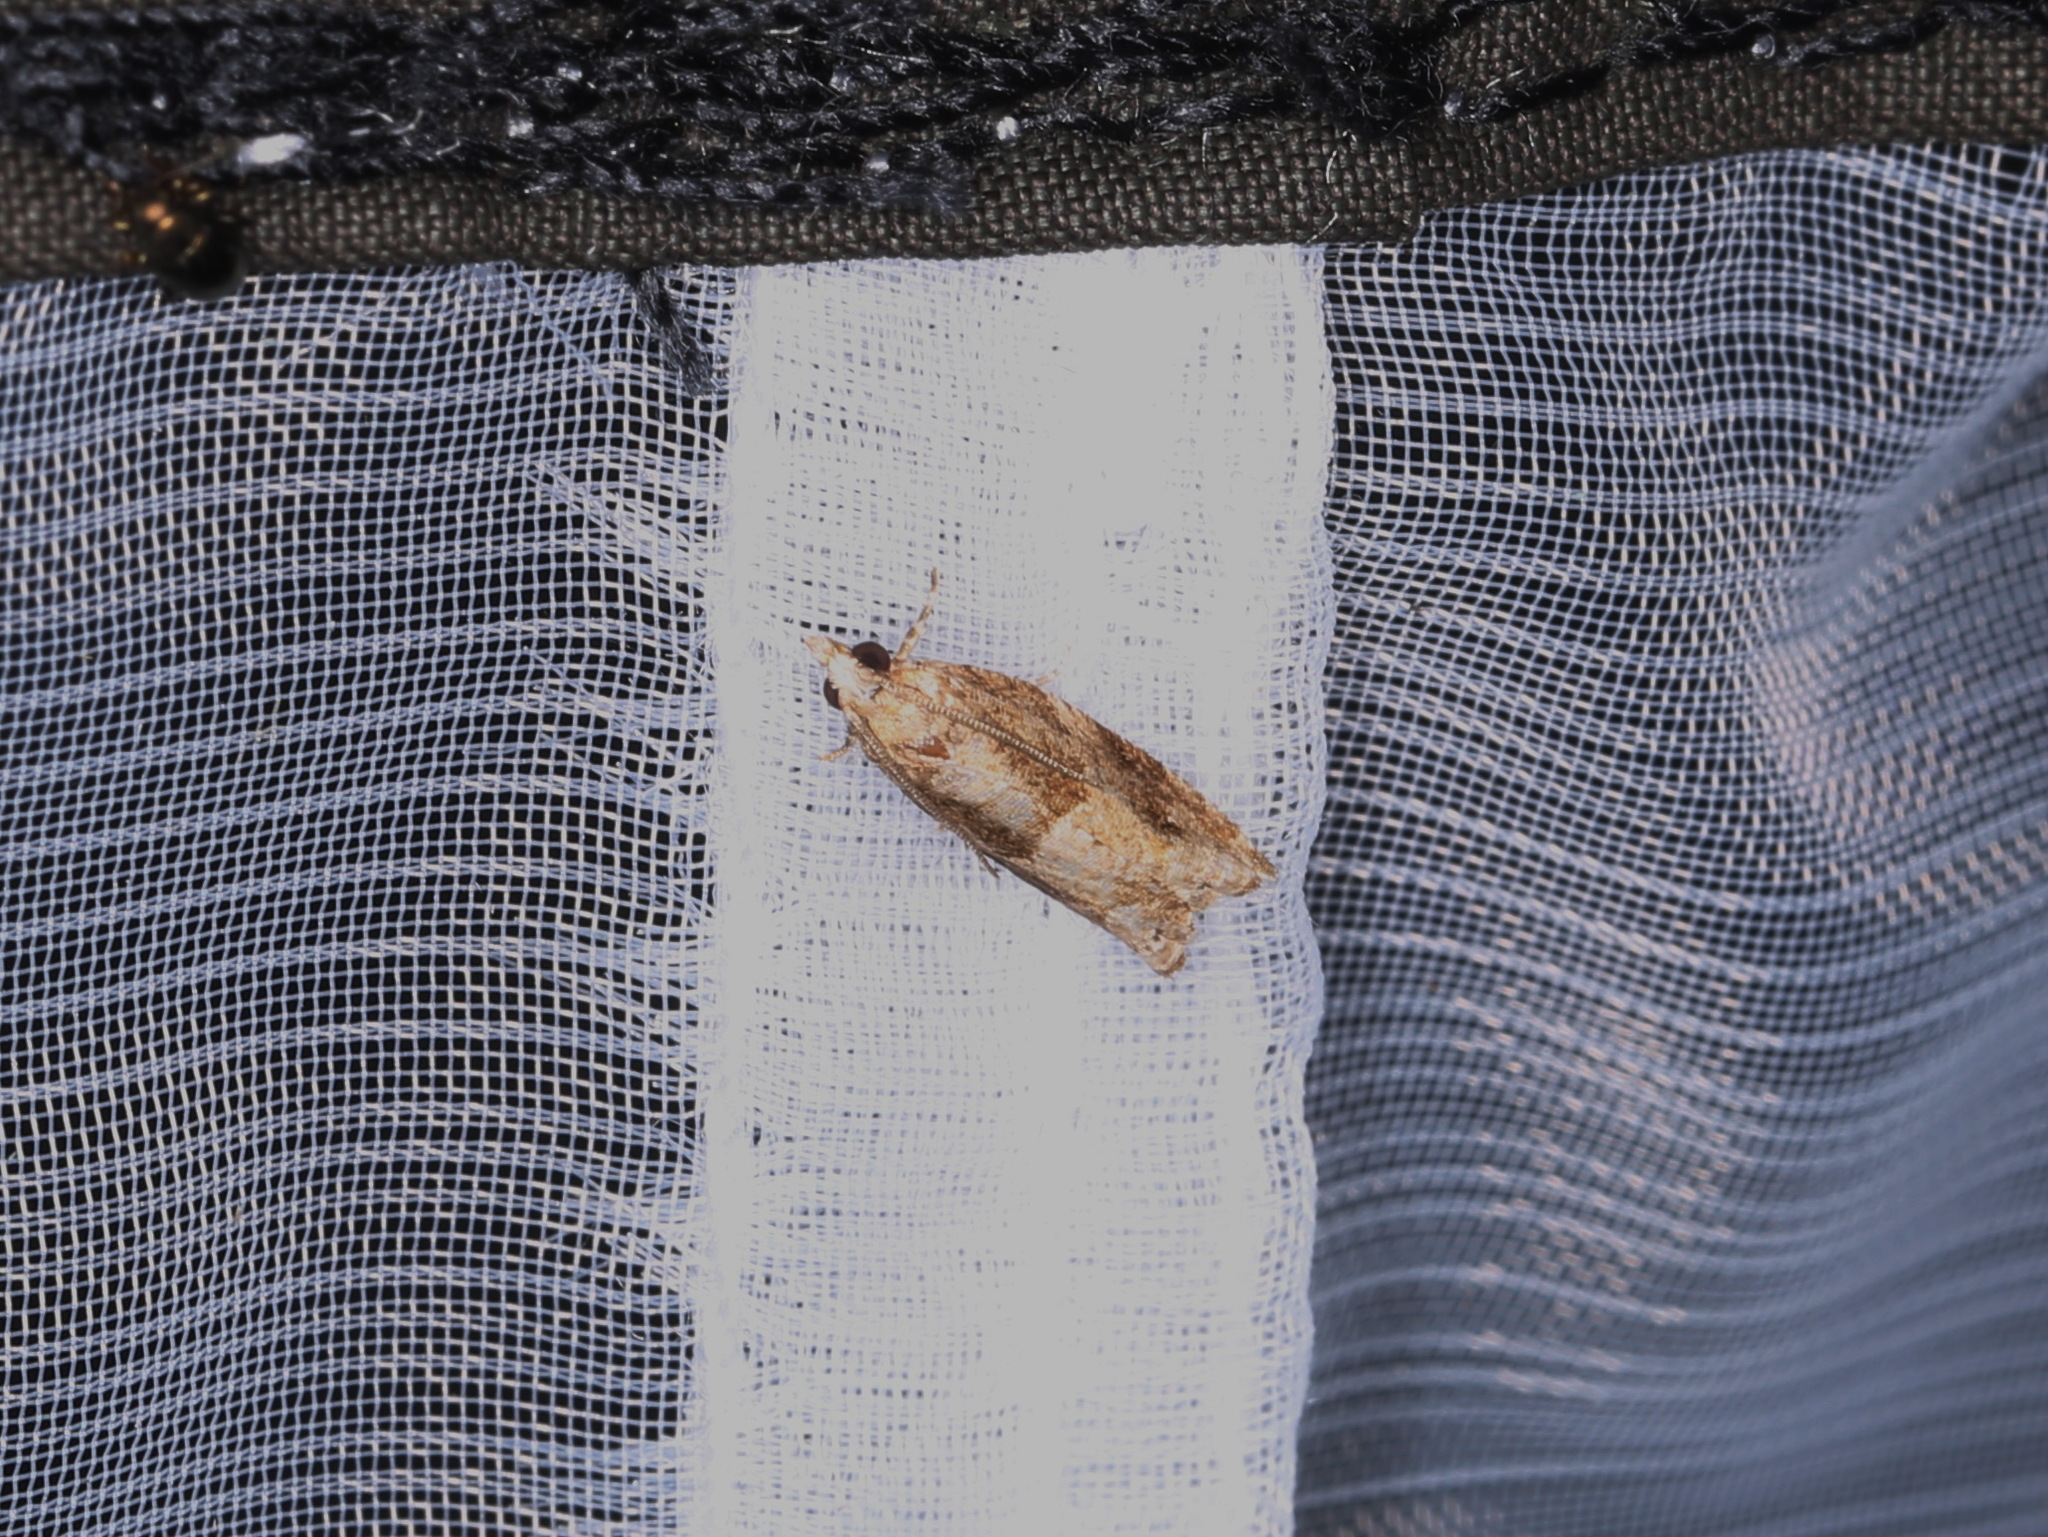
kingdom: Animalia
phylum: Arthropoda
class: Insecta
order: Lepidoptera
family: Tortricidae
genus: Rhopobota
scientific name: Rhopobota naevana
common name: Blackheaded fireworm, holly tortrix
